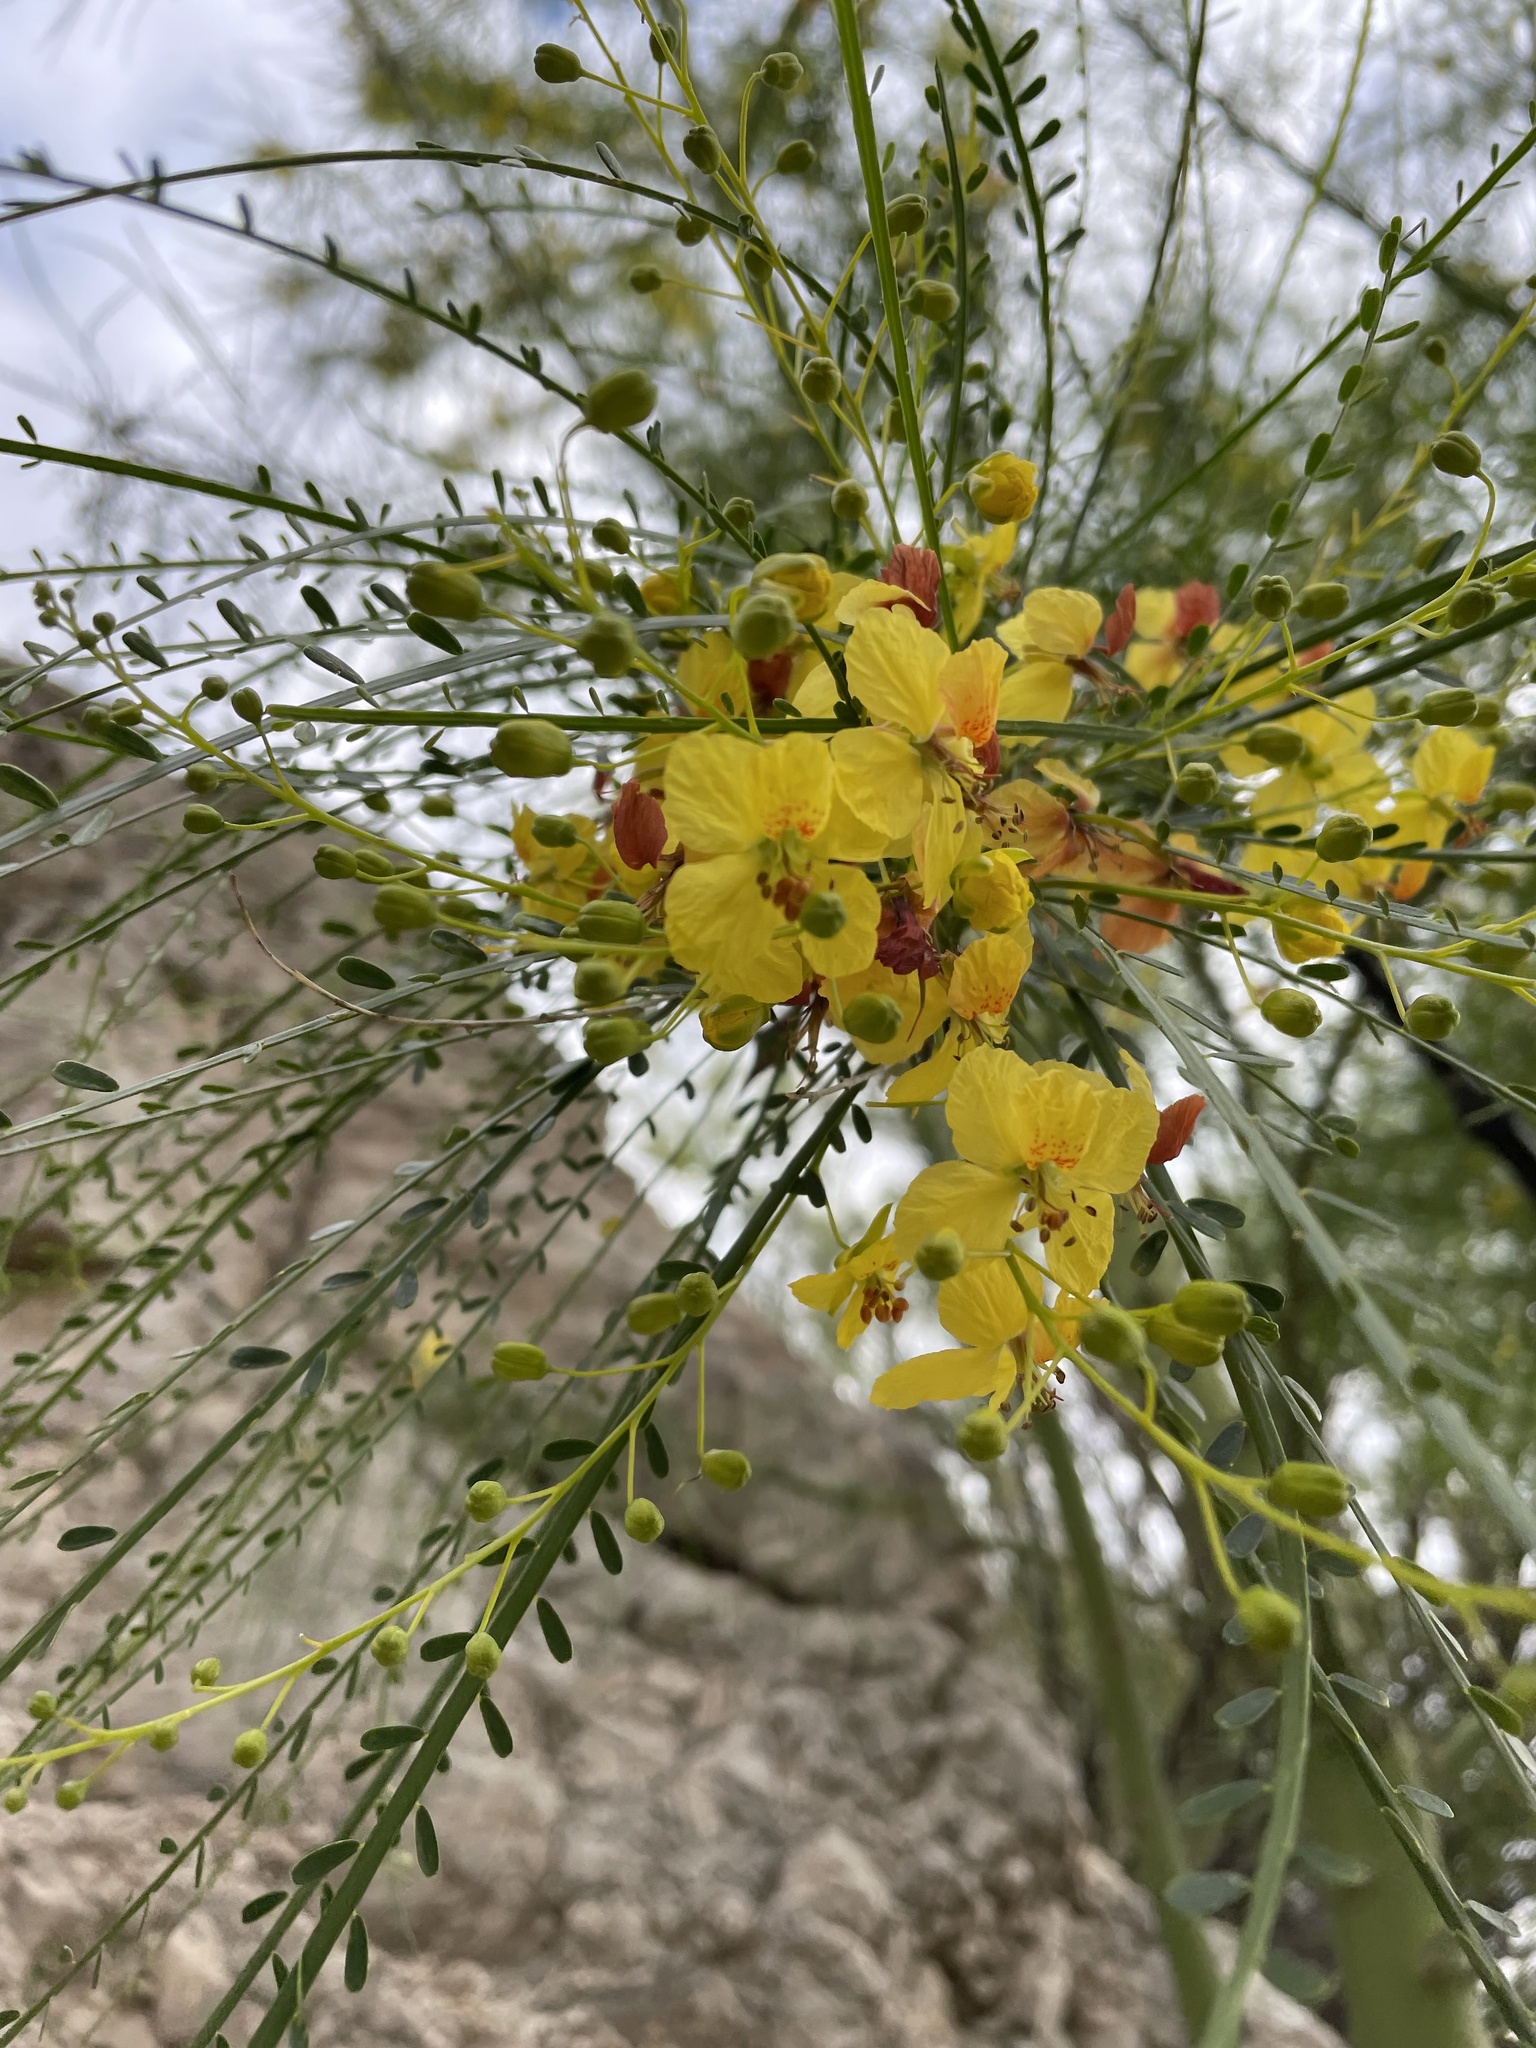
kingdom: Plantae
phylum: Tracheophyta
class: Magnoliopsida
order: Fabales
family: Fabaceae
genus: Parkinsonia
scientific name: Parkinsonia aculeata
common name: Jerusalem thorn
